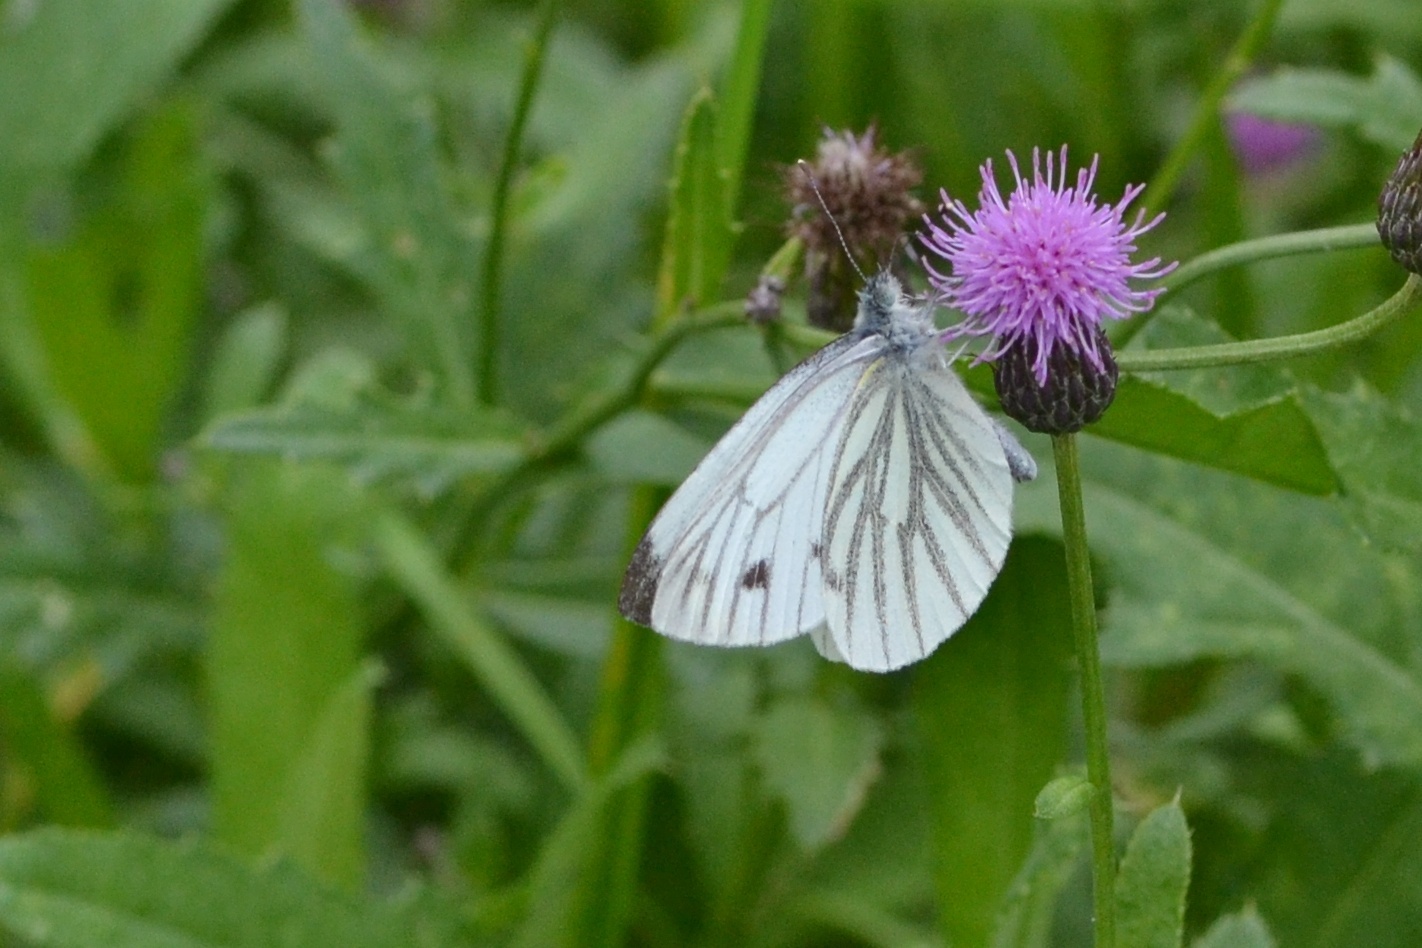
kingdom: Animalia
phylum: Arthropoda
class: Insecta
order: Lepidoptera
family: Pieridae
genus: Pieris
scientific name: Pieris napi
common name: Green-veined white
